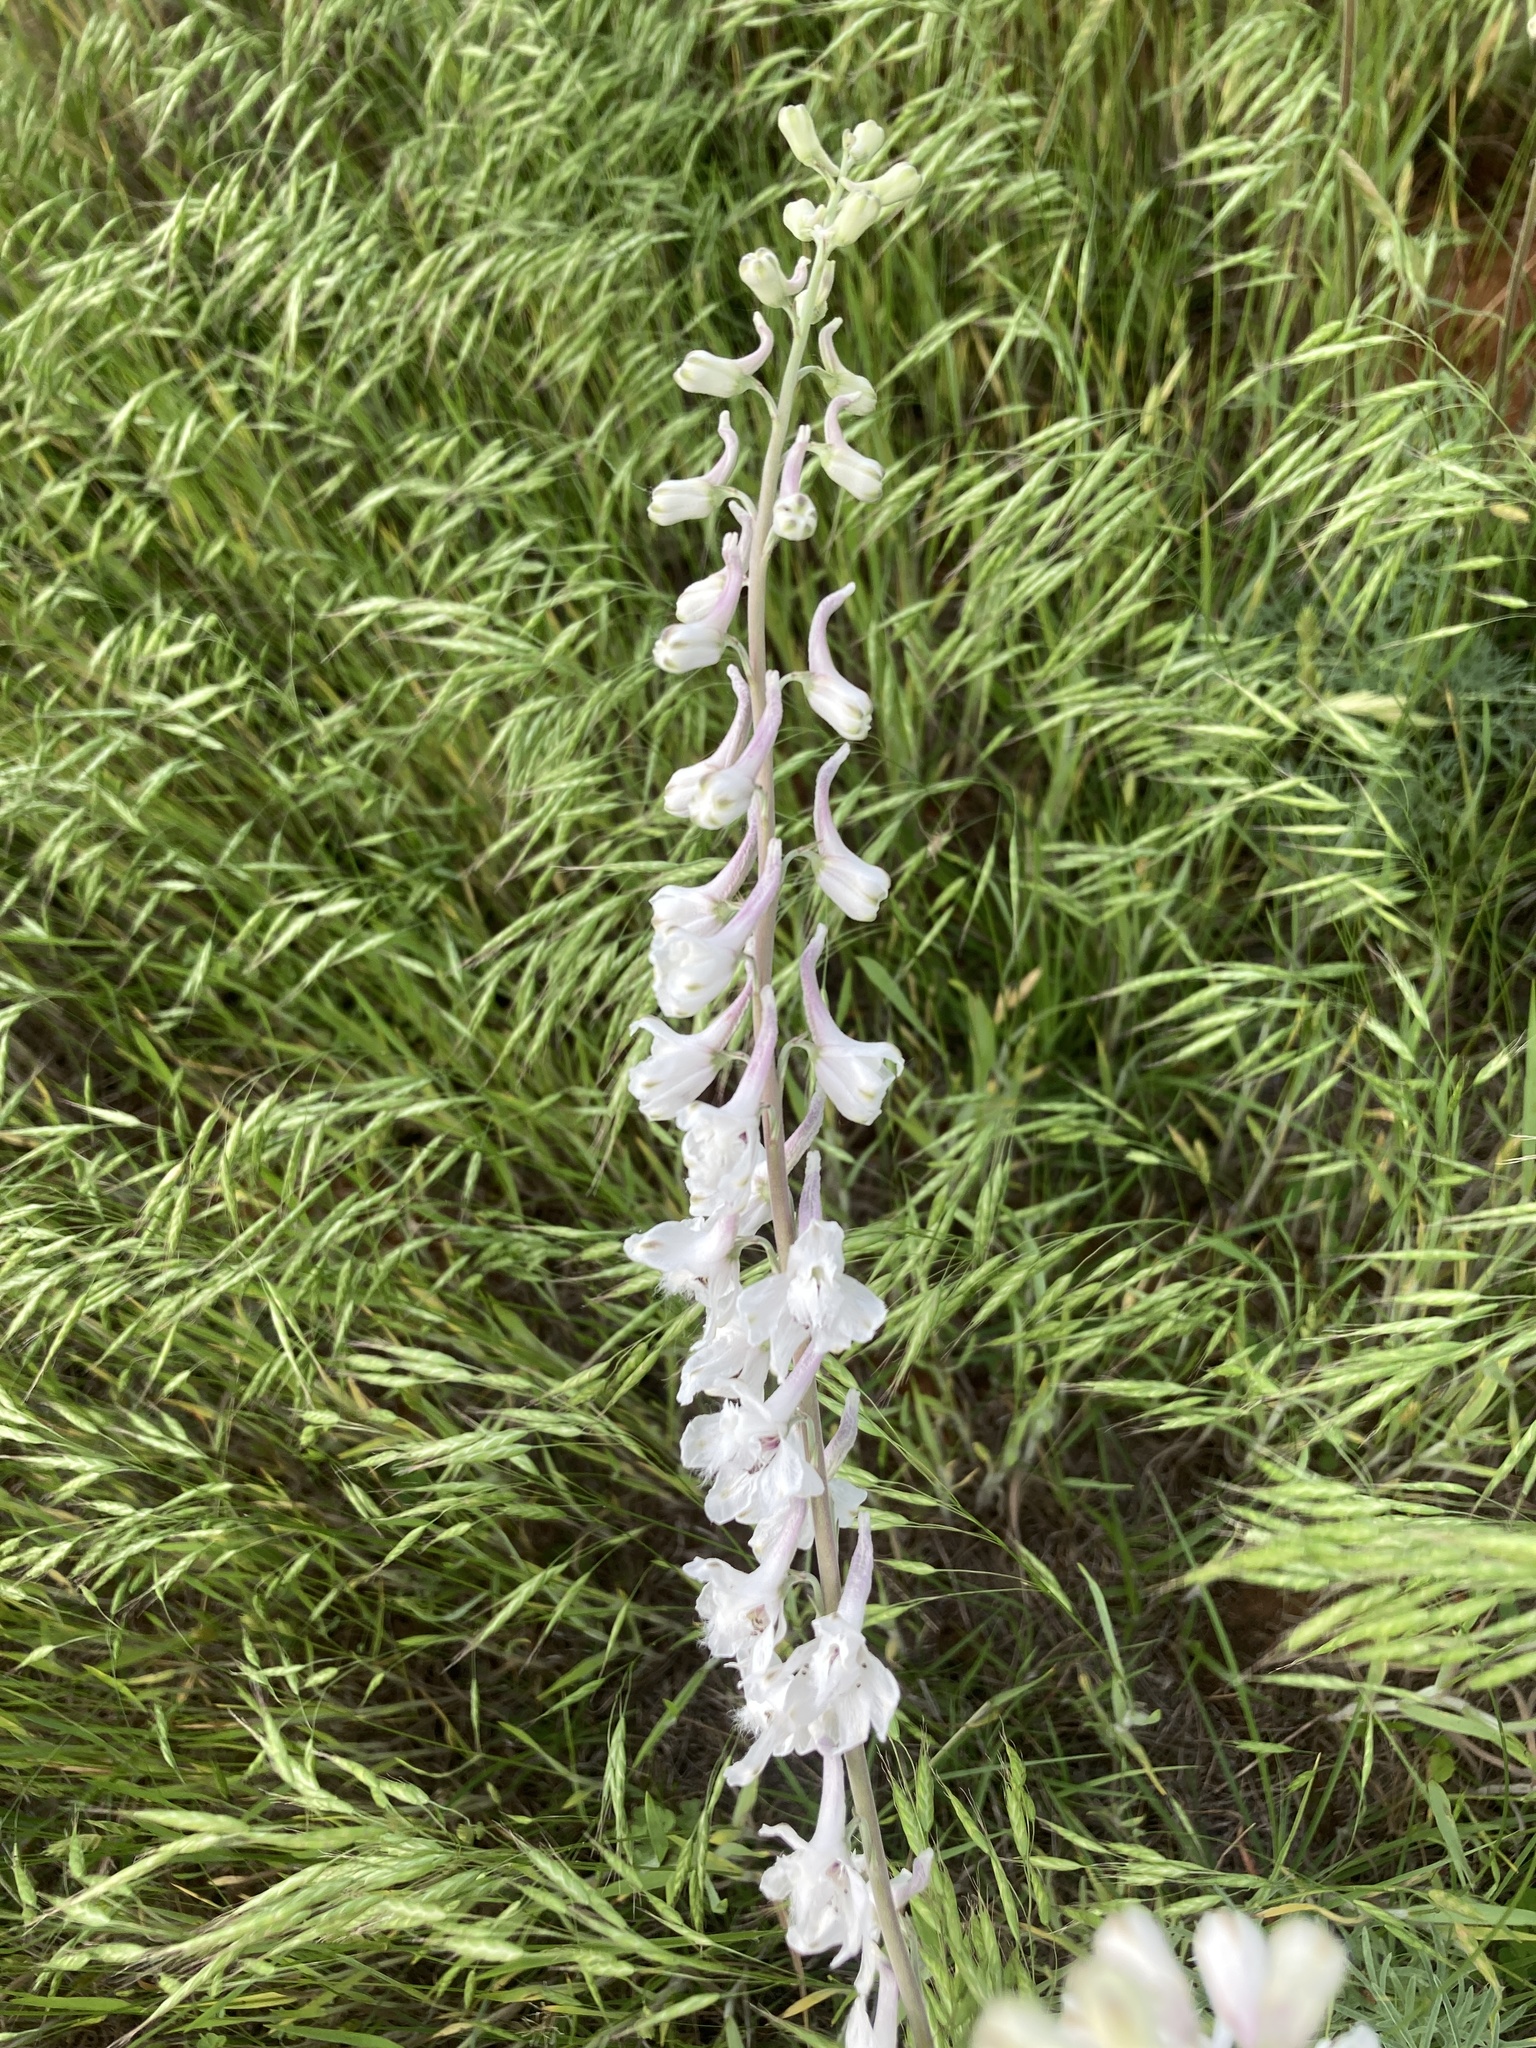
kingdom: Plantae
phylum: Tracheophyta
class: Magnoliopsida
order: Ranunculales
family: Ranunculaceae
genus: Delphinium
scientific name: Delphinium carolinianum
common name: Carolina larkspur
